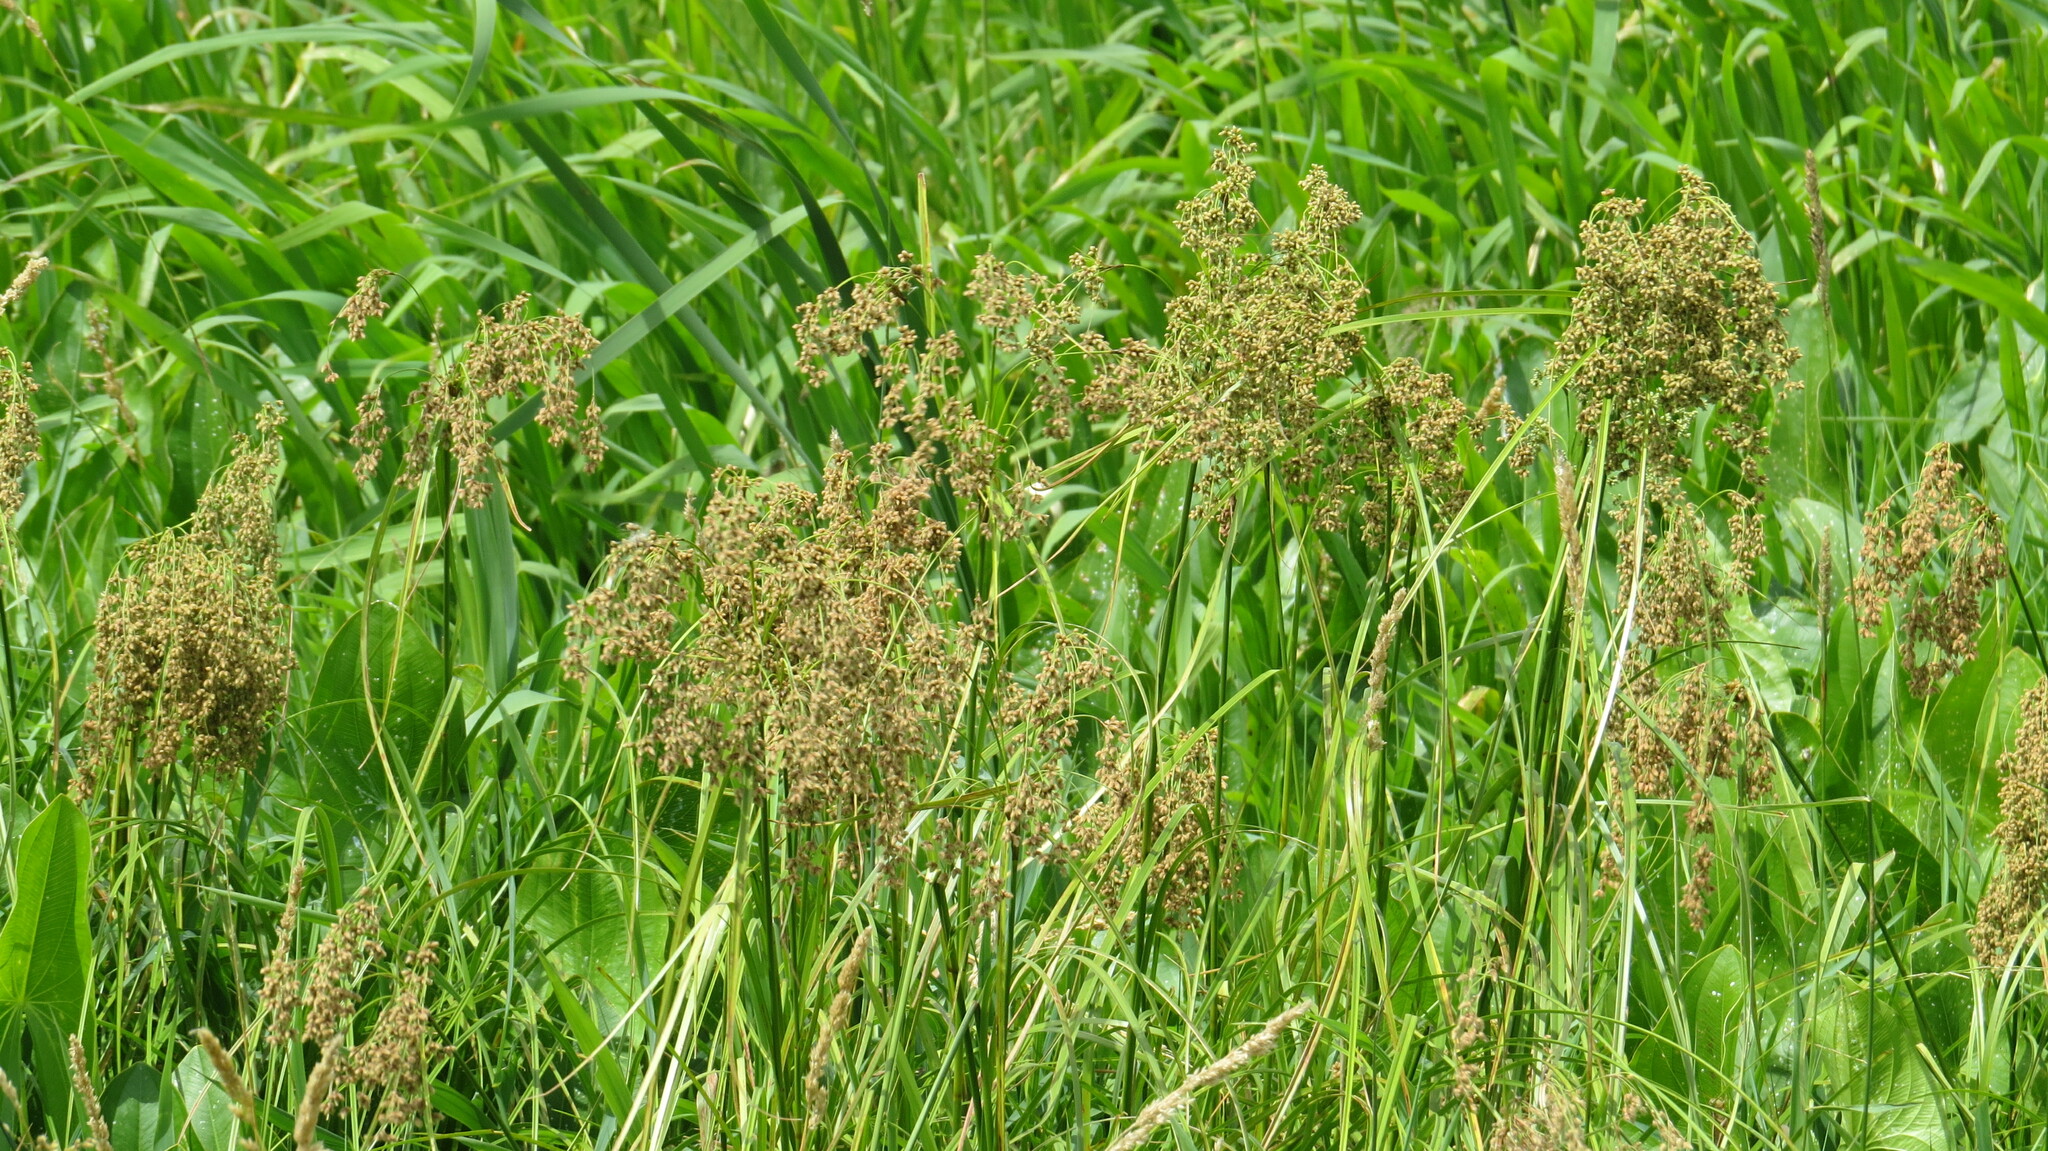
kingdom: Plantae
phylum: Tracheophyta
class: Liliopsida
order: Poales
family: Cyperaceae
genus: Scirpus
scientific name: Scirpus cyperinus
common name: Black-sheathed bulrush
